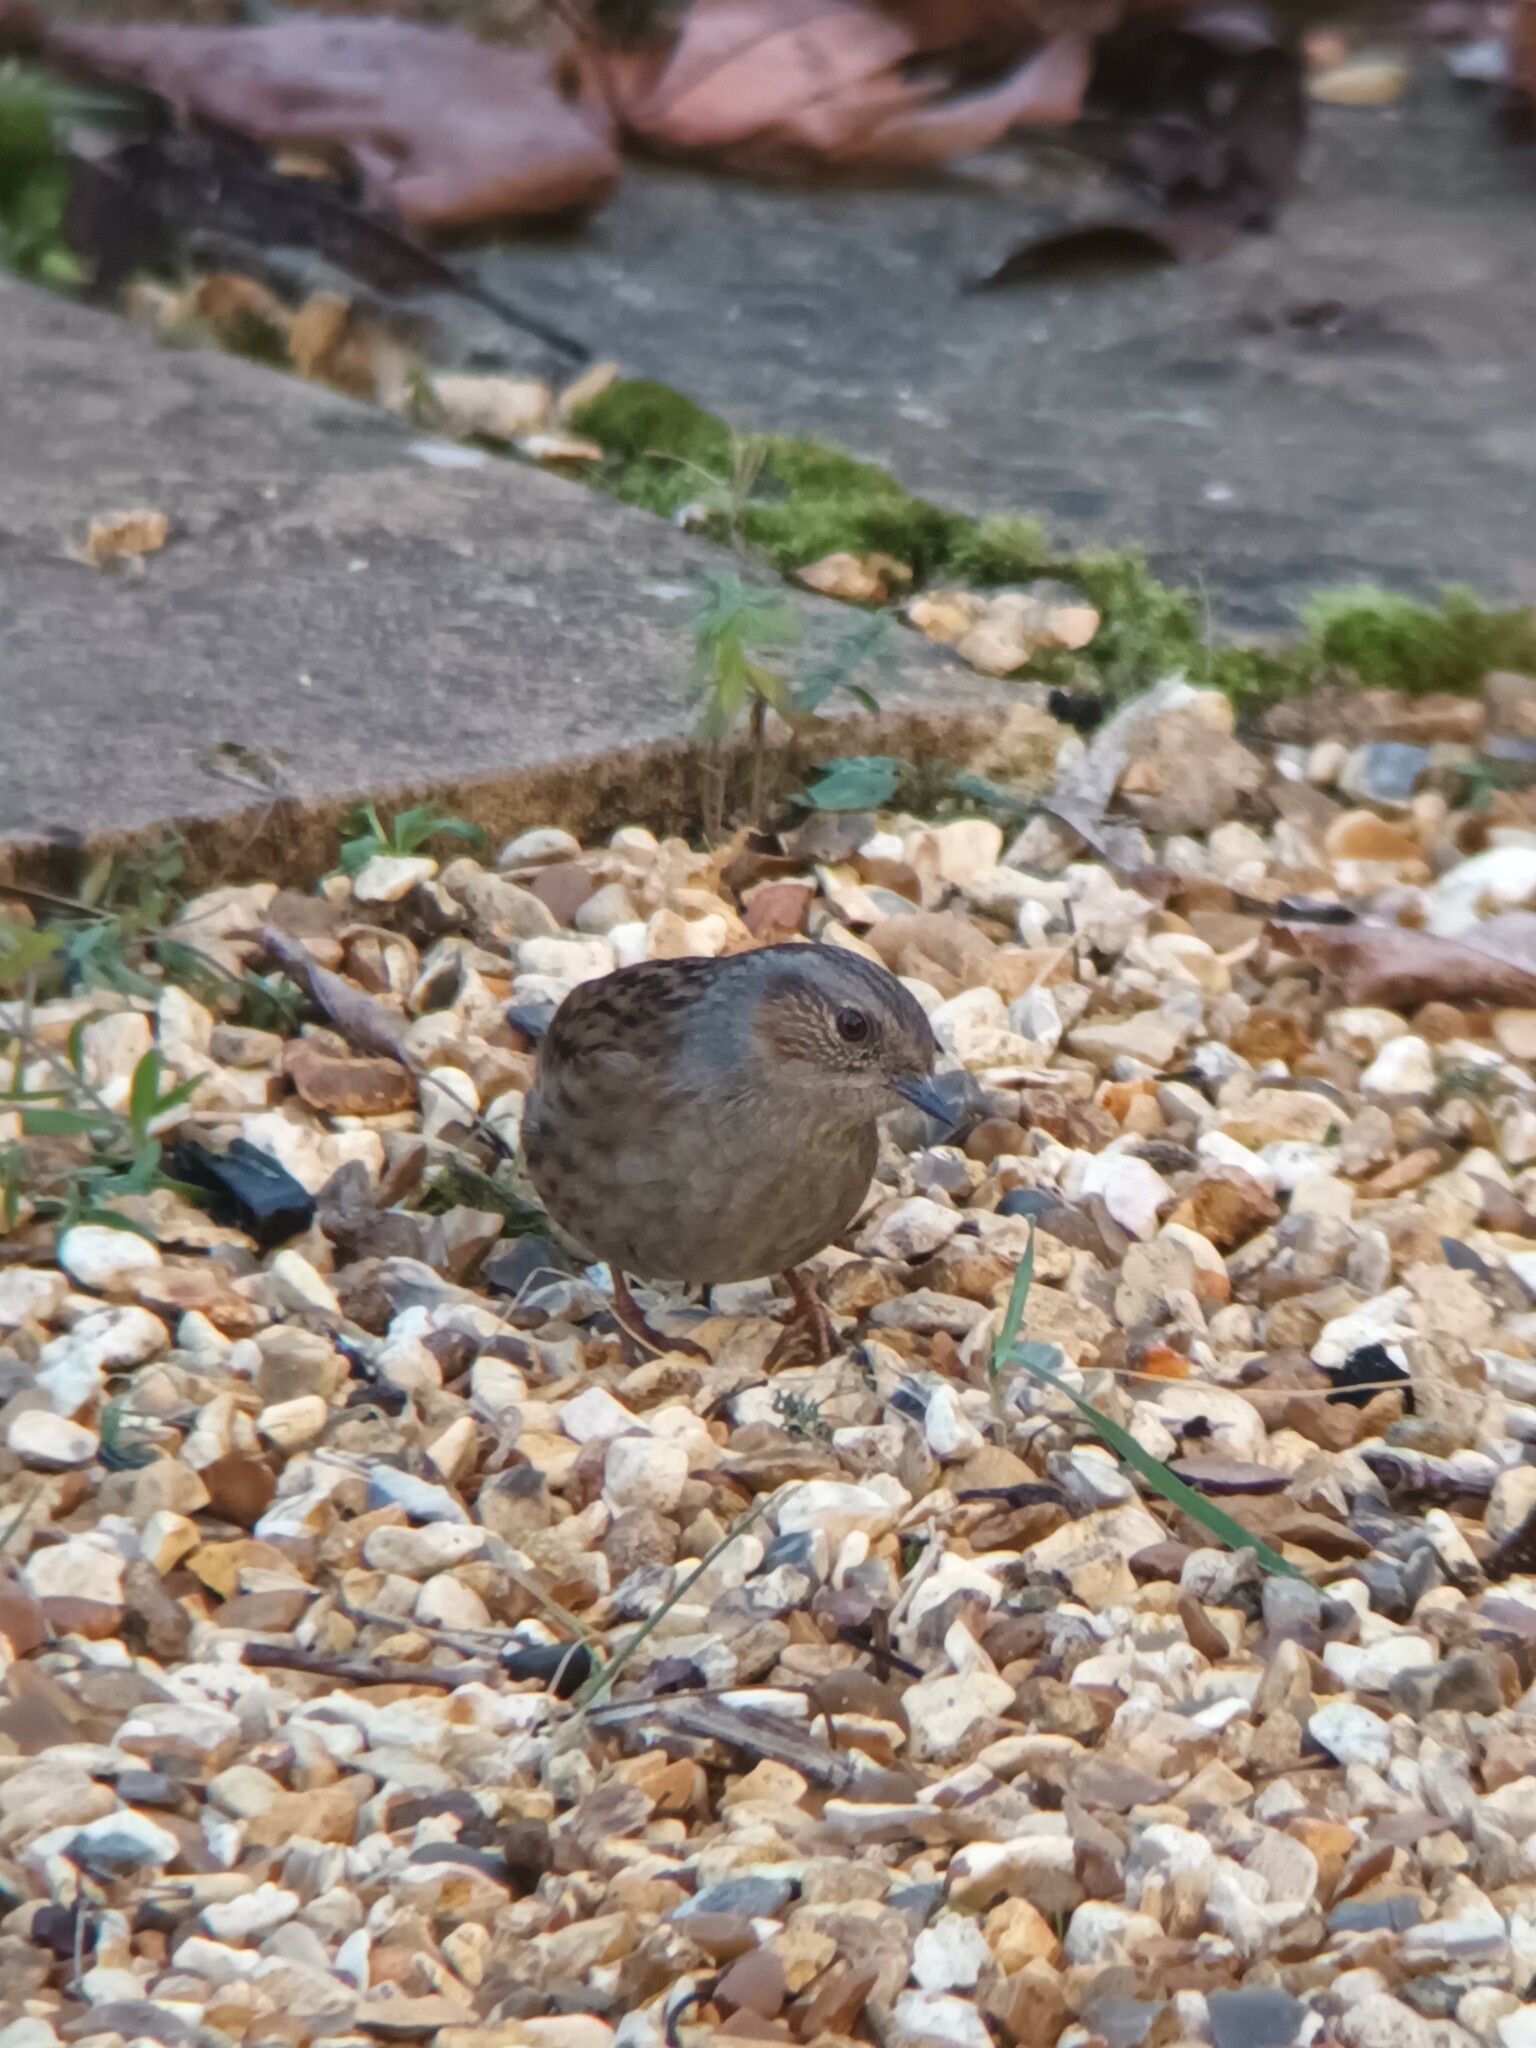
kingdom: Animalia
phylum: Chordata
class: Aves
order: Passeriformes
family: Prunellidae
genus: Prunella
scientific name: Prunella modularis
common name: Dunnock
